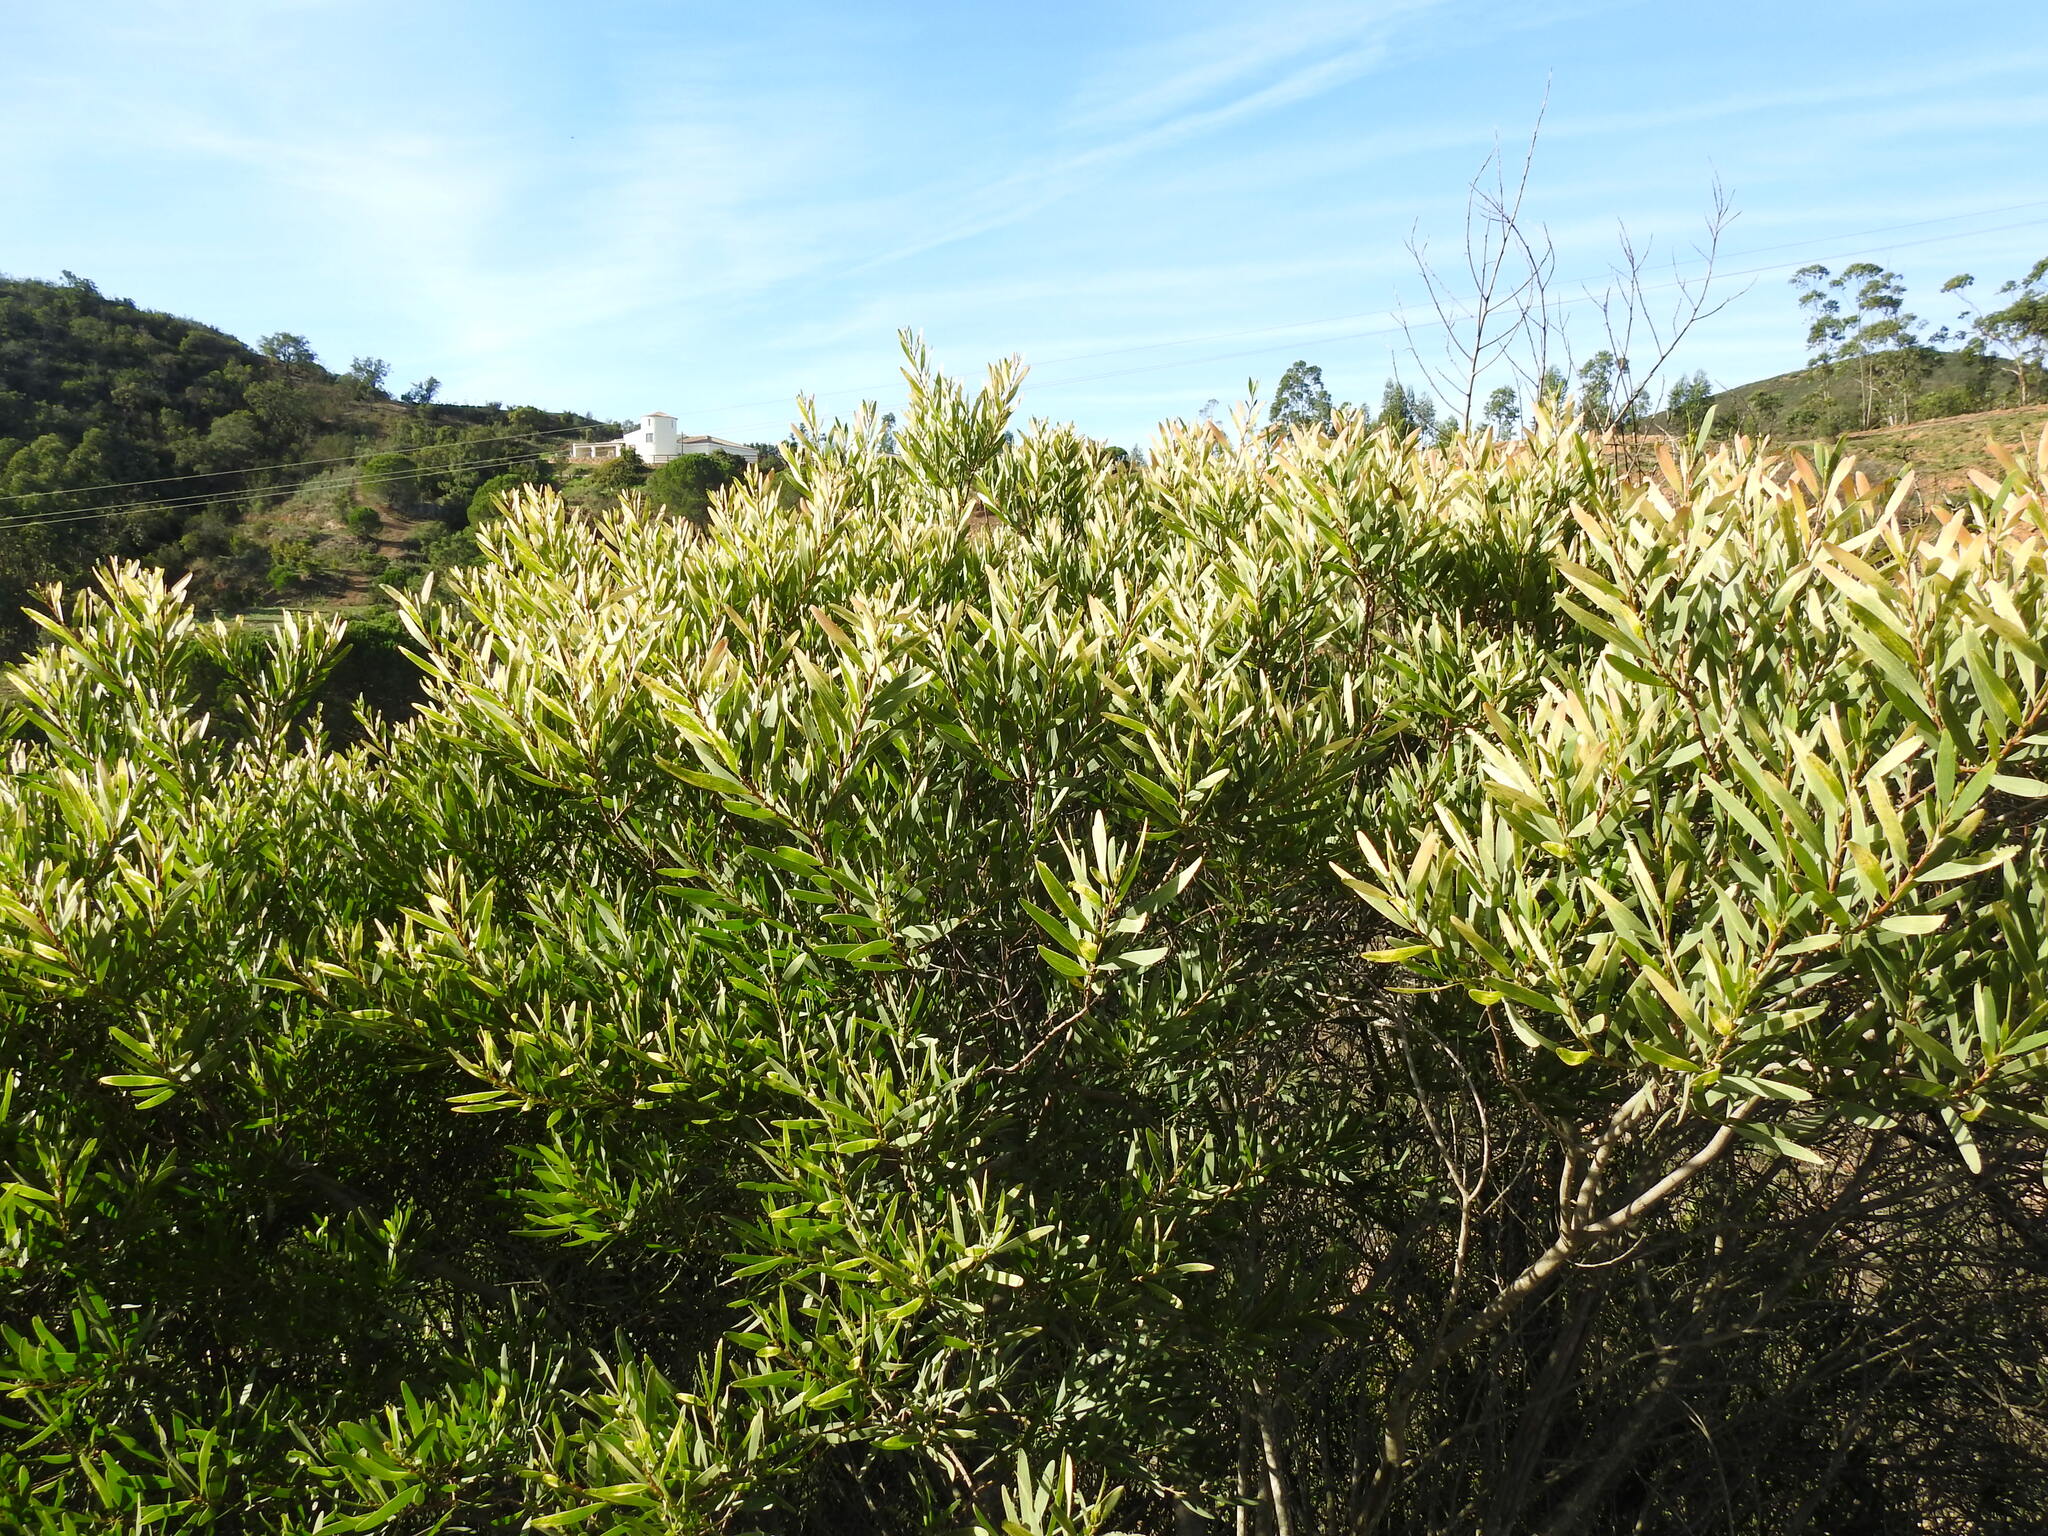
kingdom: Plantae
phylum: Tracheophyta
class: Magnoliopsida
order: Fabales
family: Fabaceae
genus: Acacia
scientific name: Acacia longifolia
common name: Sydney golden wattle
